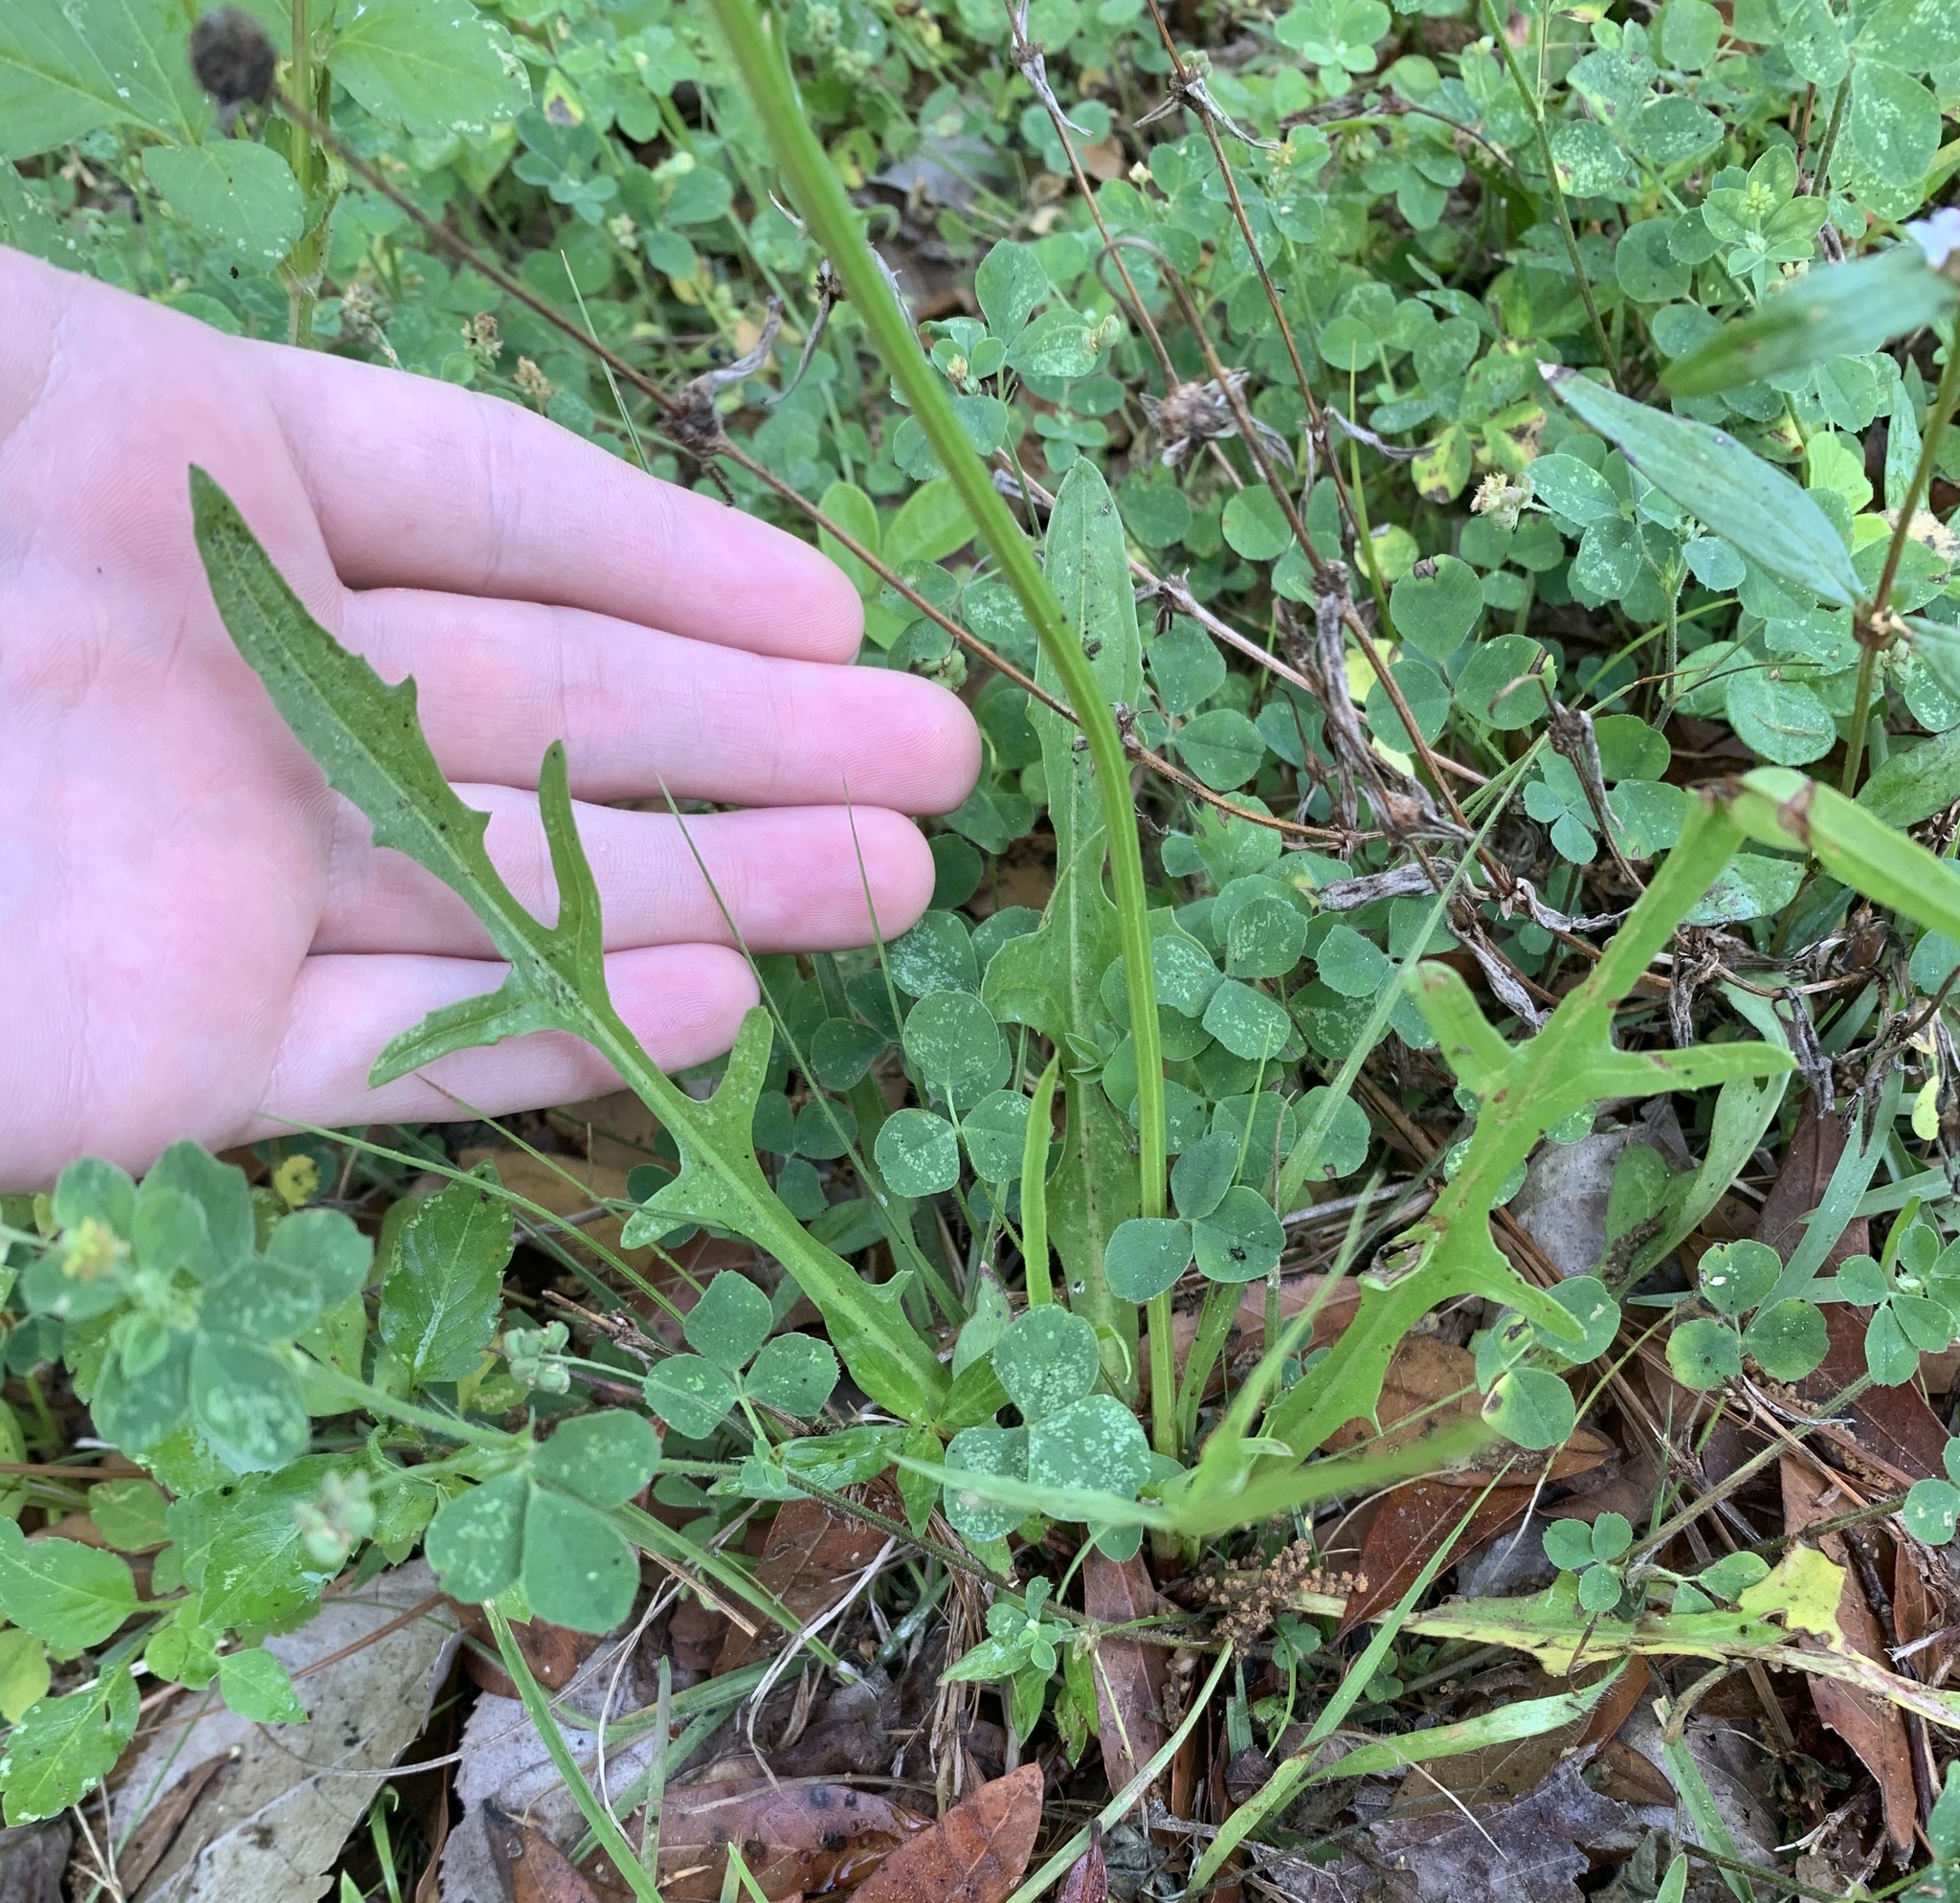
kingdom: Plantae
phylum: Tracheophyta
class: Magnoliopsida
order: Asterales
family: Asteraceae
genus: Pyrrhopappus
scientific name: Pyrrhopappus carolinianus
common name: Carolina desert-chicory
